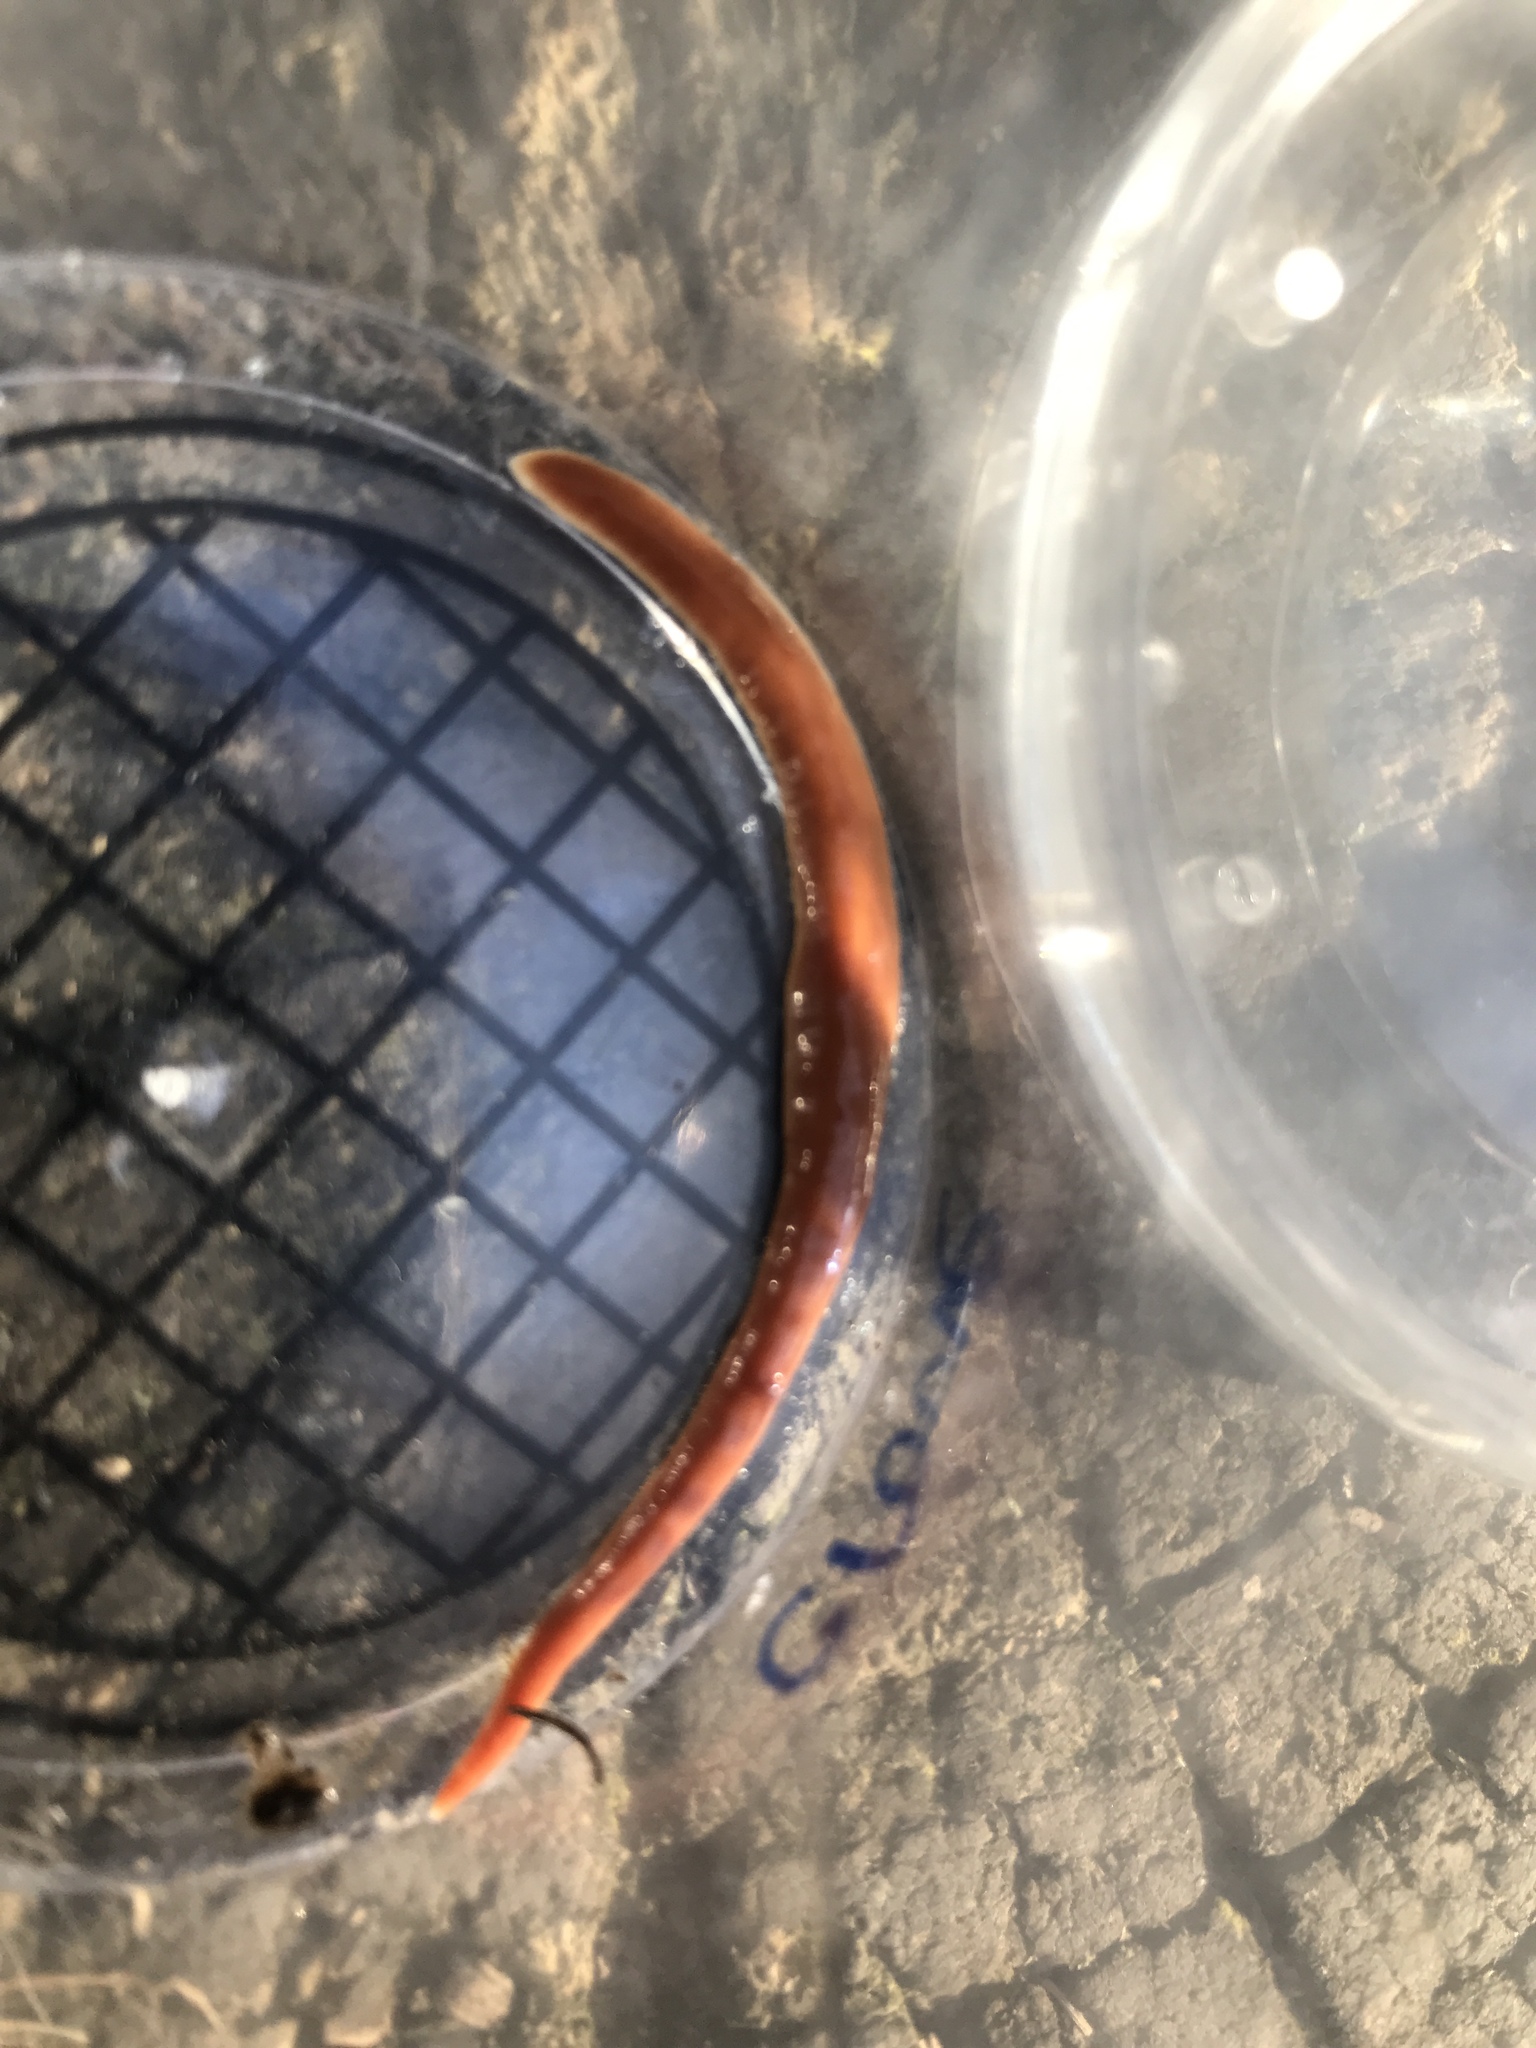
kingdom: Animalia
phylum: Platyhelminthes
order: Tricladida
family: Geoplanidae
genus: Arthurdendyus
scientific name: Arthurdendyus testaceus
